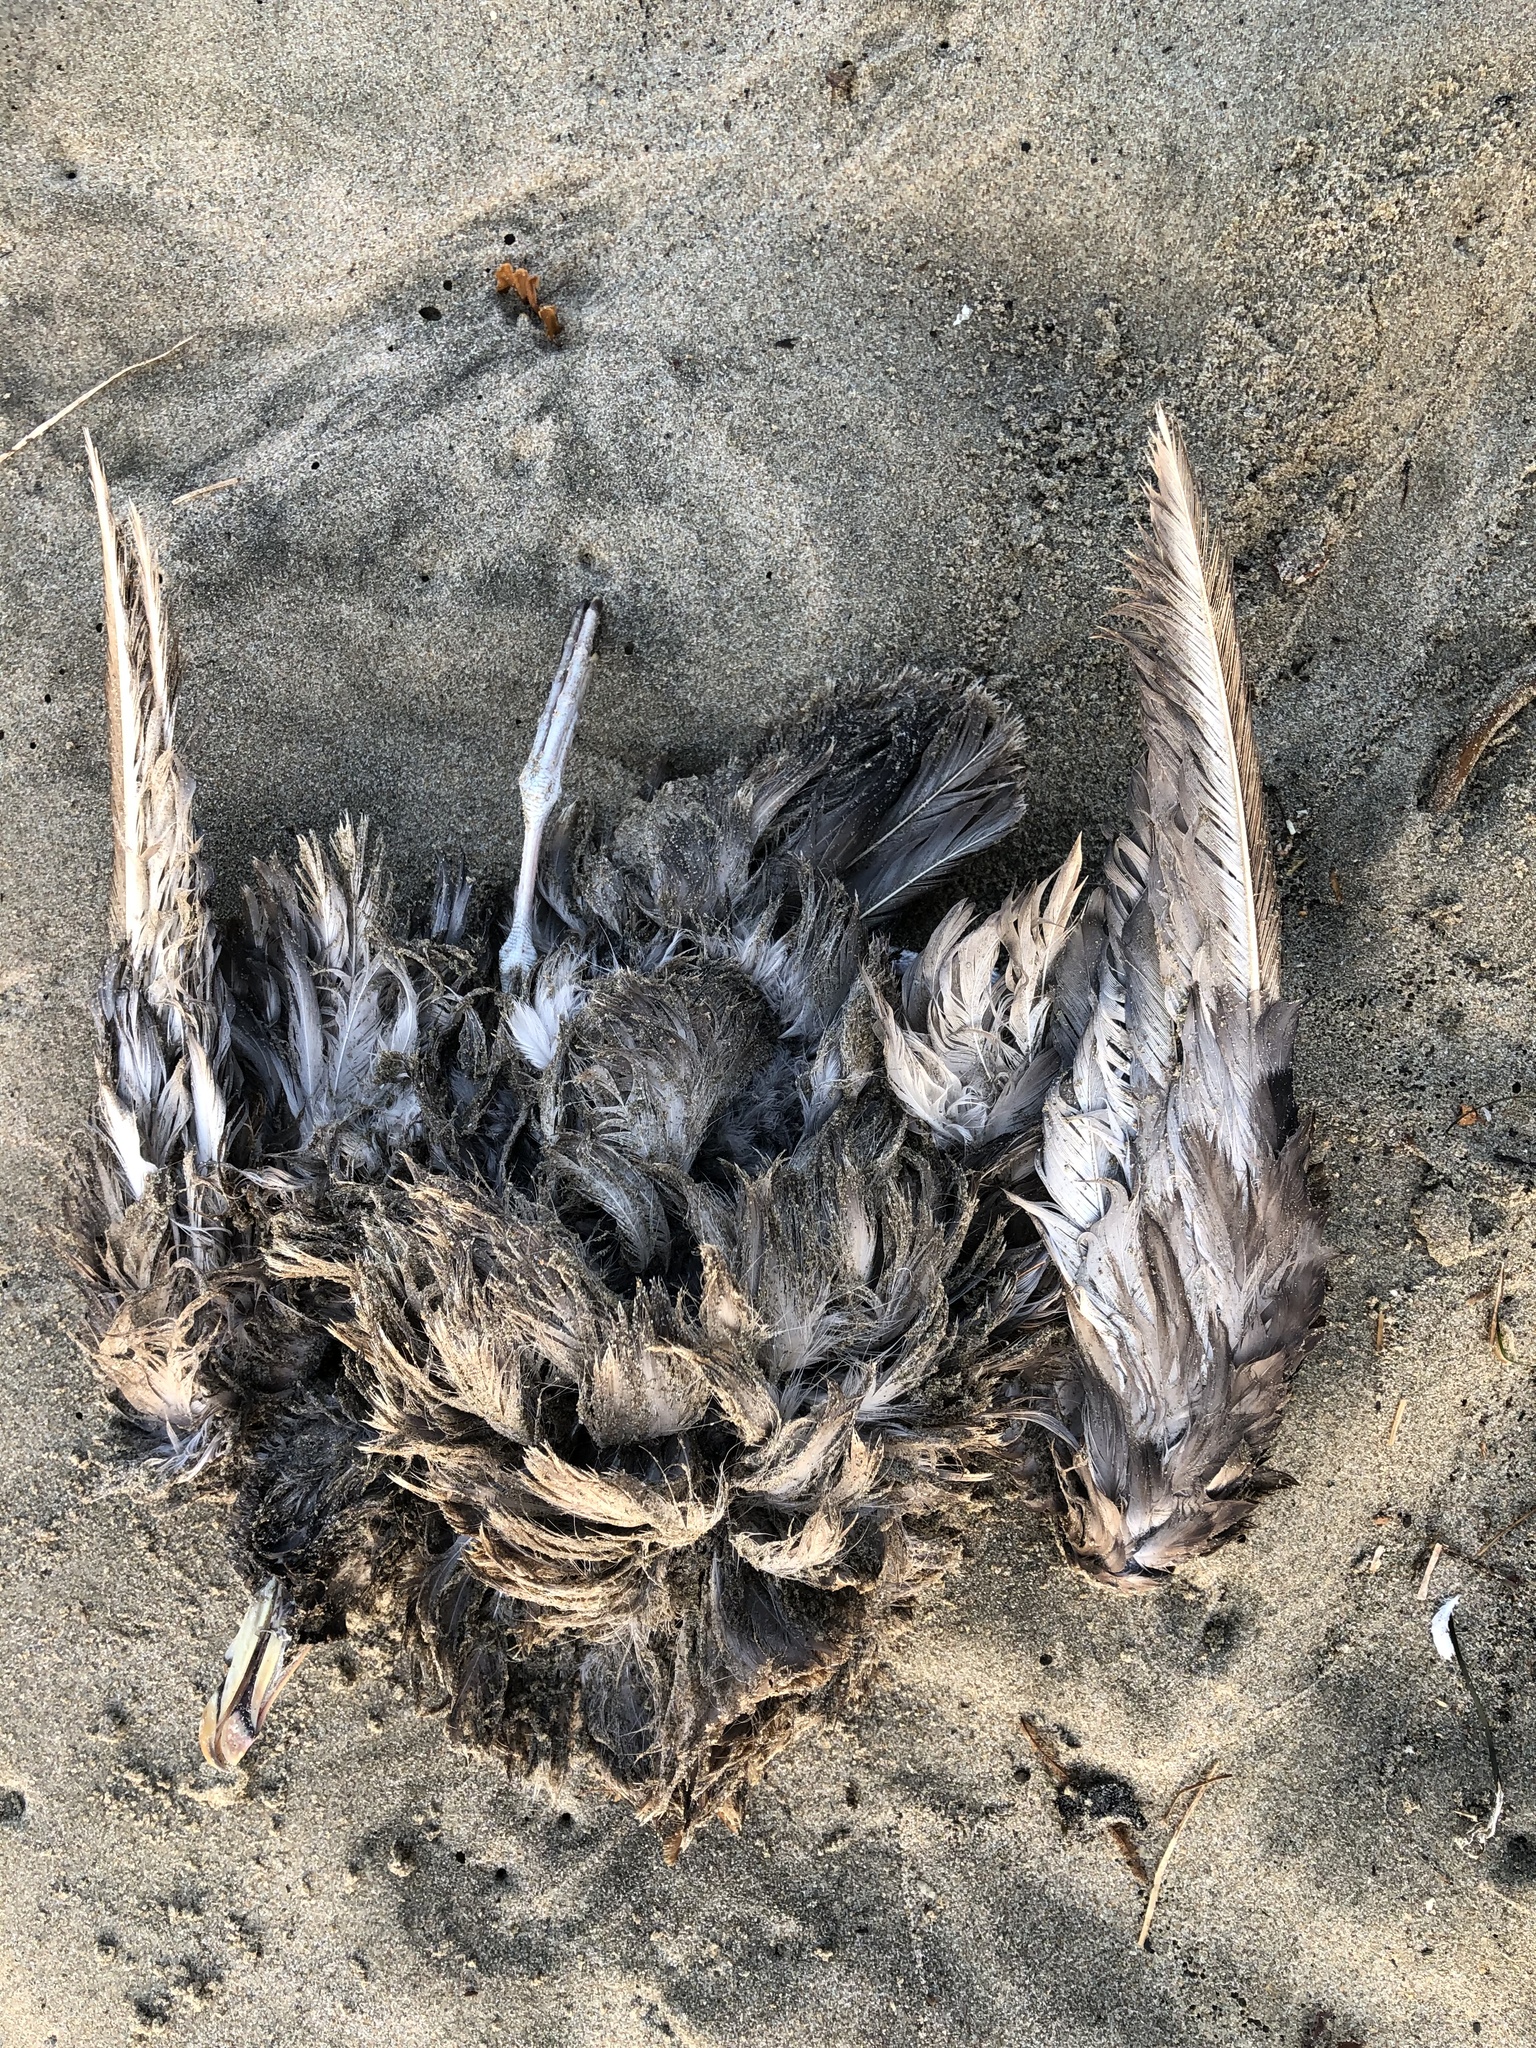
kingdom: Animalia
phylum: Chordata
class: Aves
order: Procellariiformes
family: Procellariidae
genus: Fulmarus
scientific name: Fulmarus glacialis
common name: Northern fulmar
